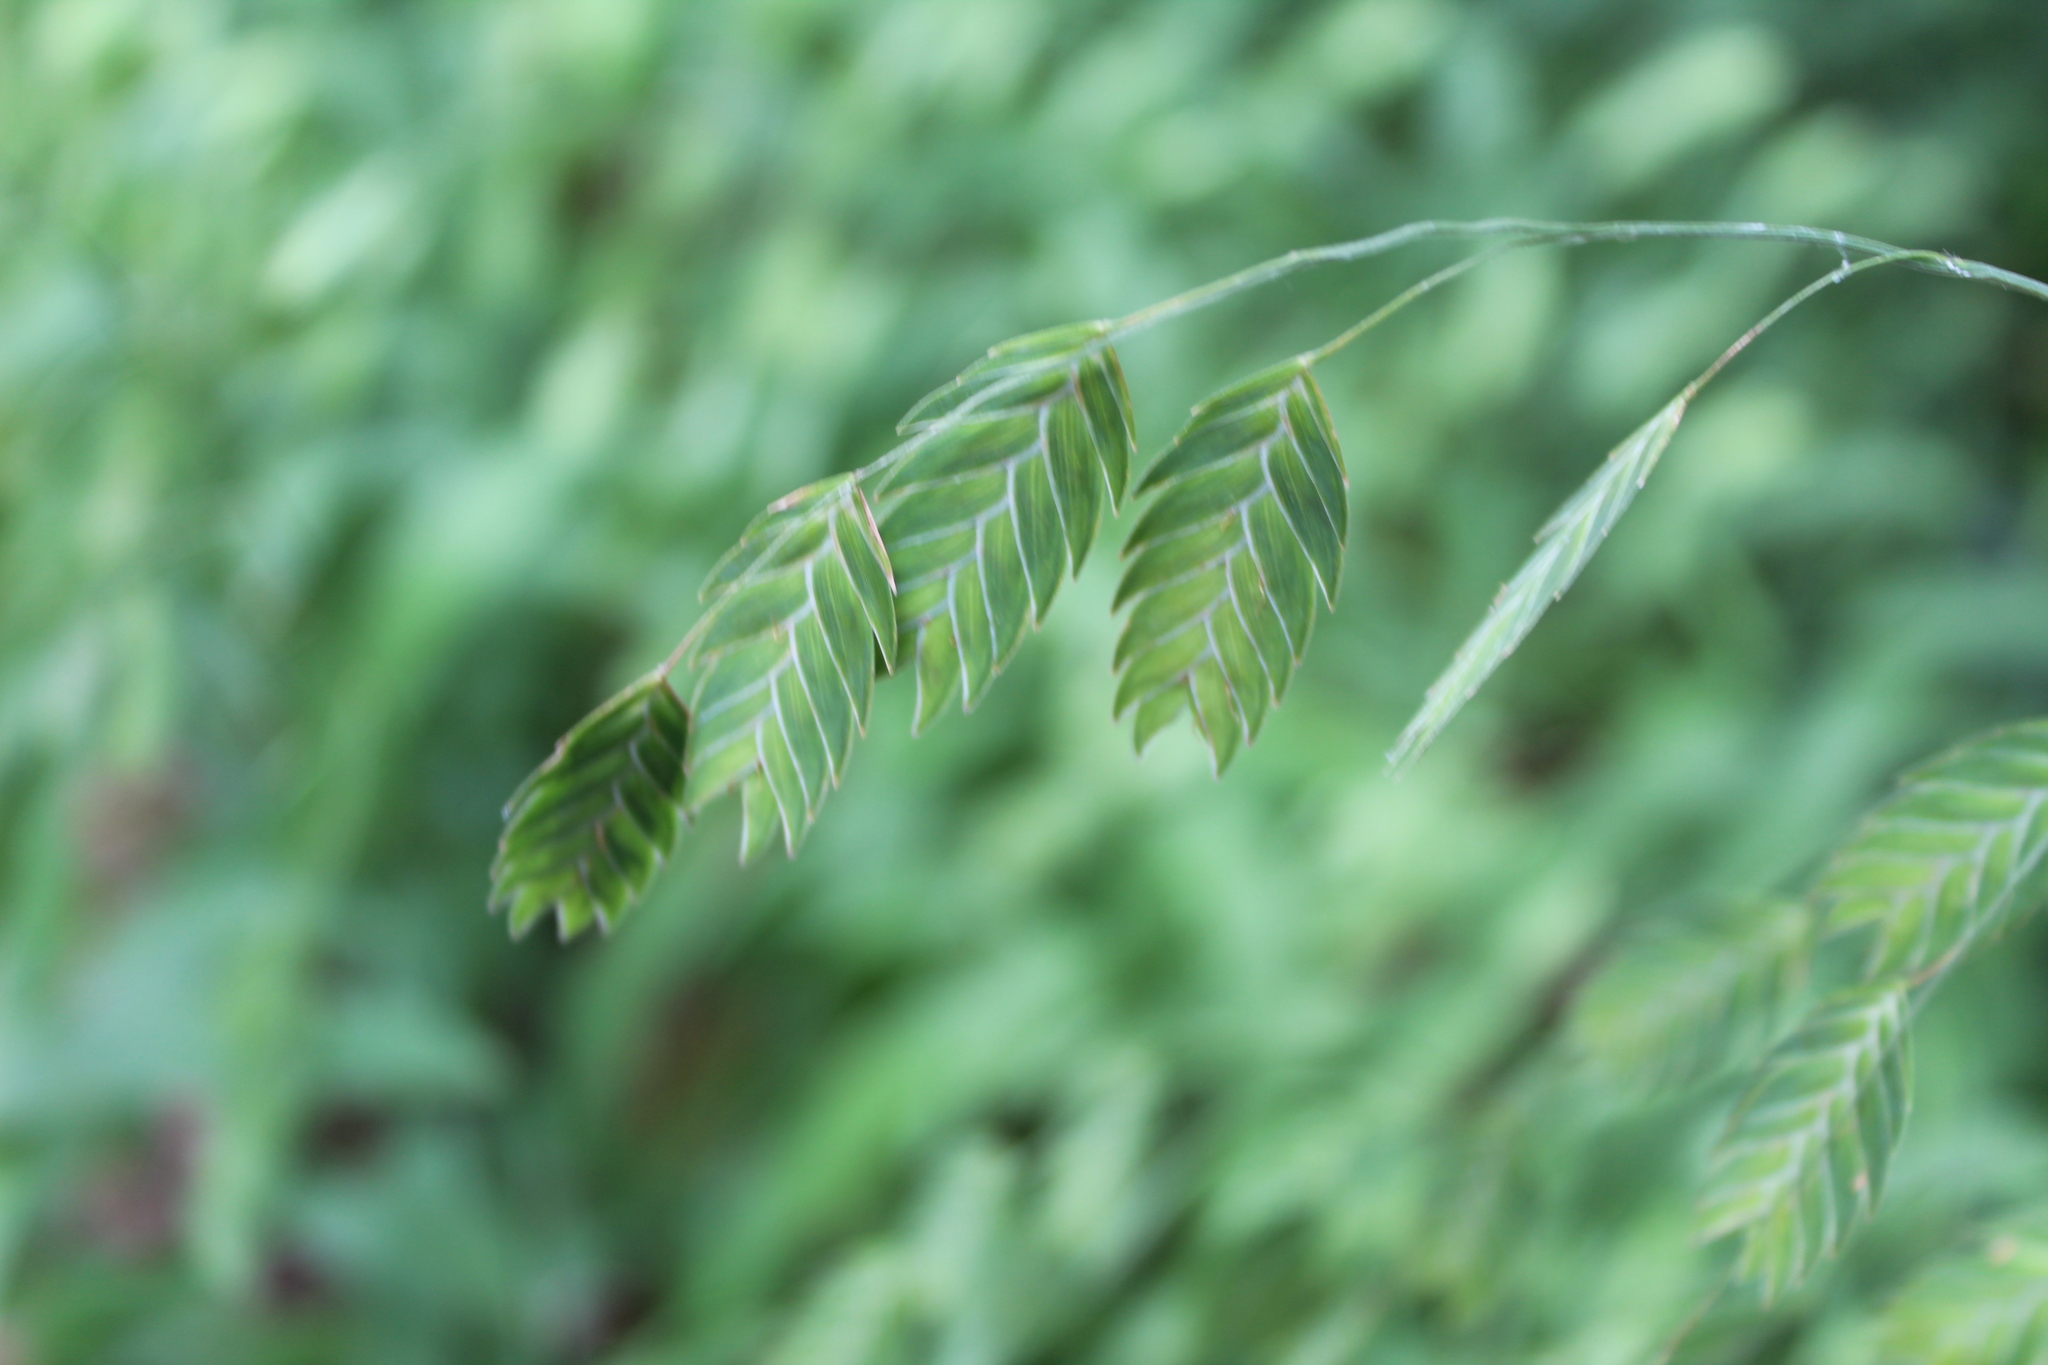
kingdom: Plantae
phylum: Tracheophyta
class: Liliopsida
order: Poales
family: Poaceae
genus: Chasmanthium
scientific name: Chasmanthium latifolium
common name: Broad-leaved chasmanthium
